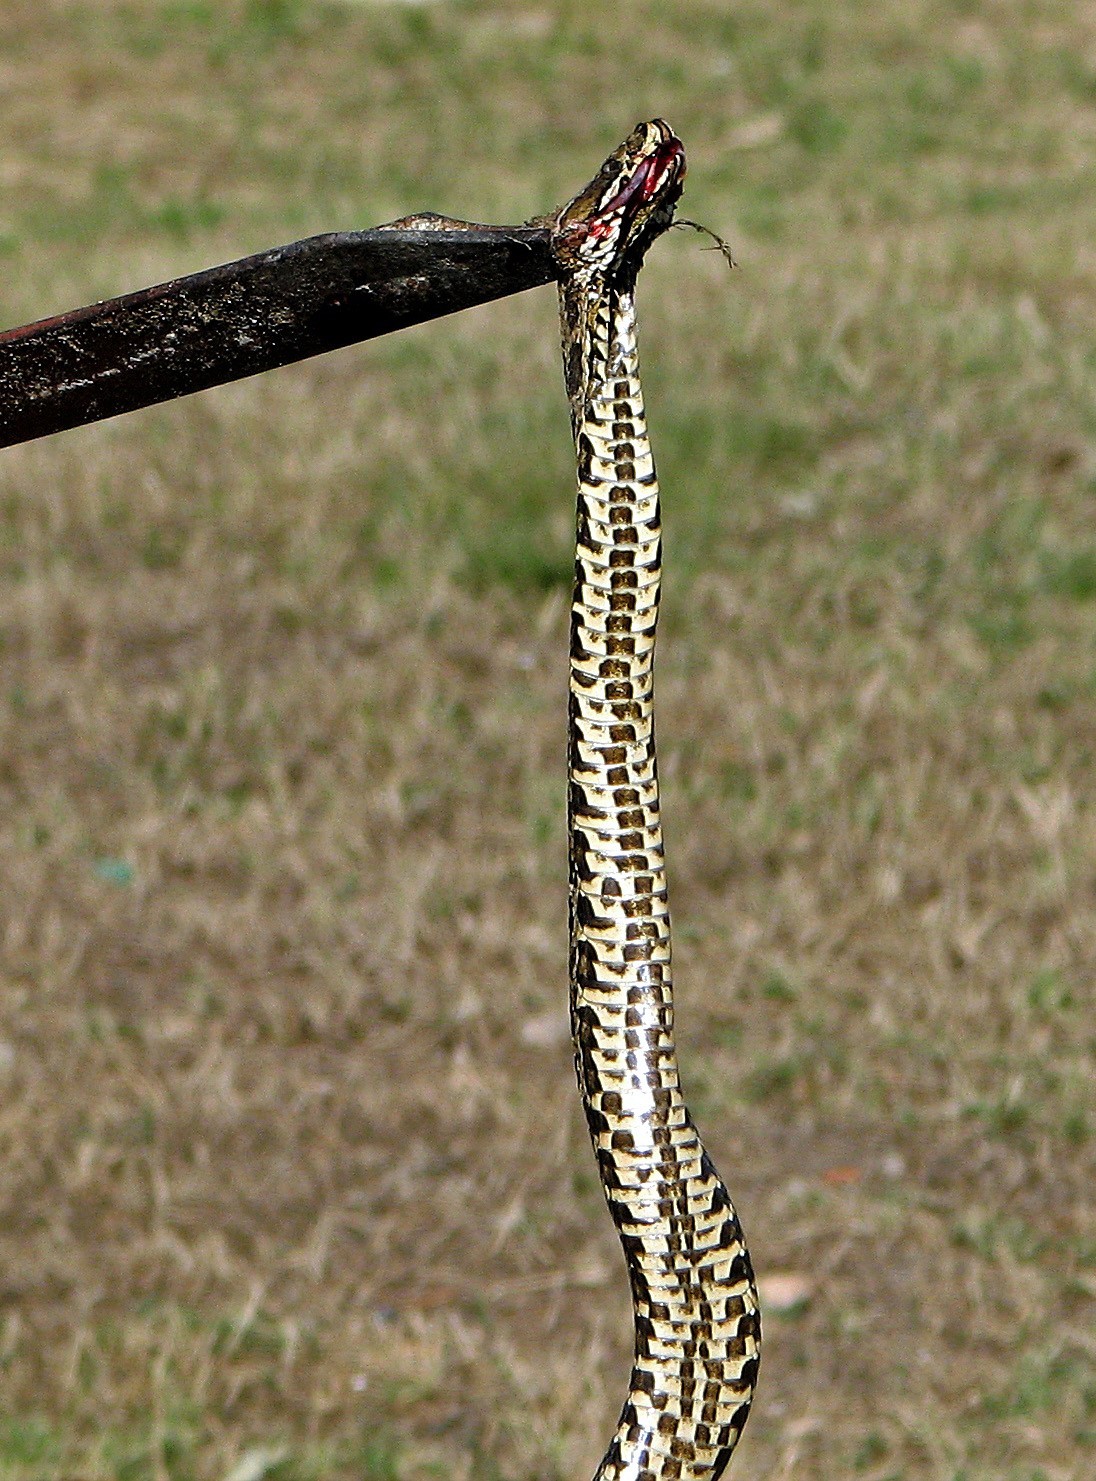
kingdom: Animalia
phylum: Chordata
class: Squamata
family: Viperidae
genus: Bothrops
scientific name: Bothrops alternatus
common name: Urutu
